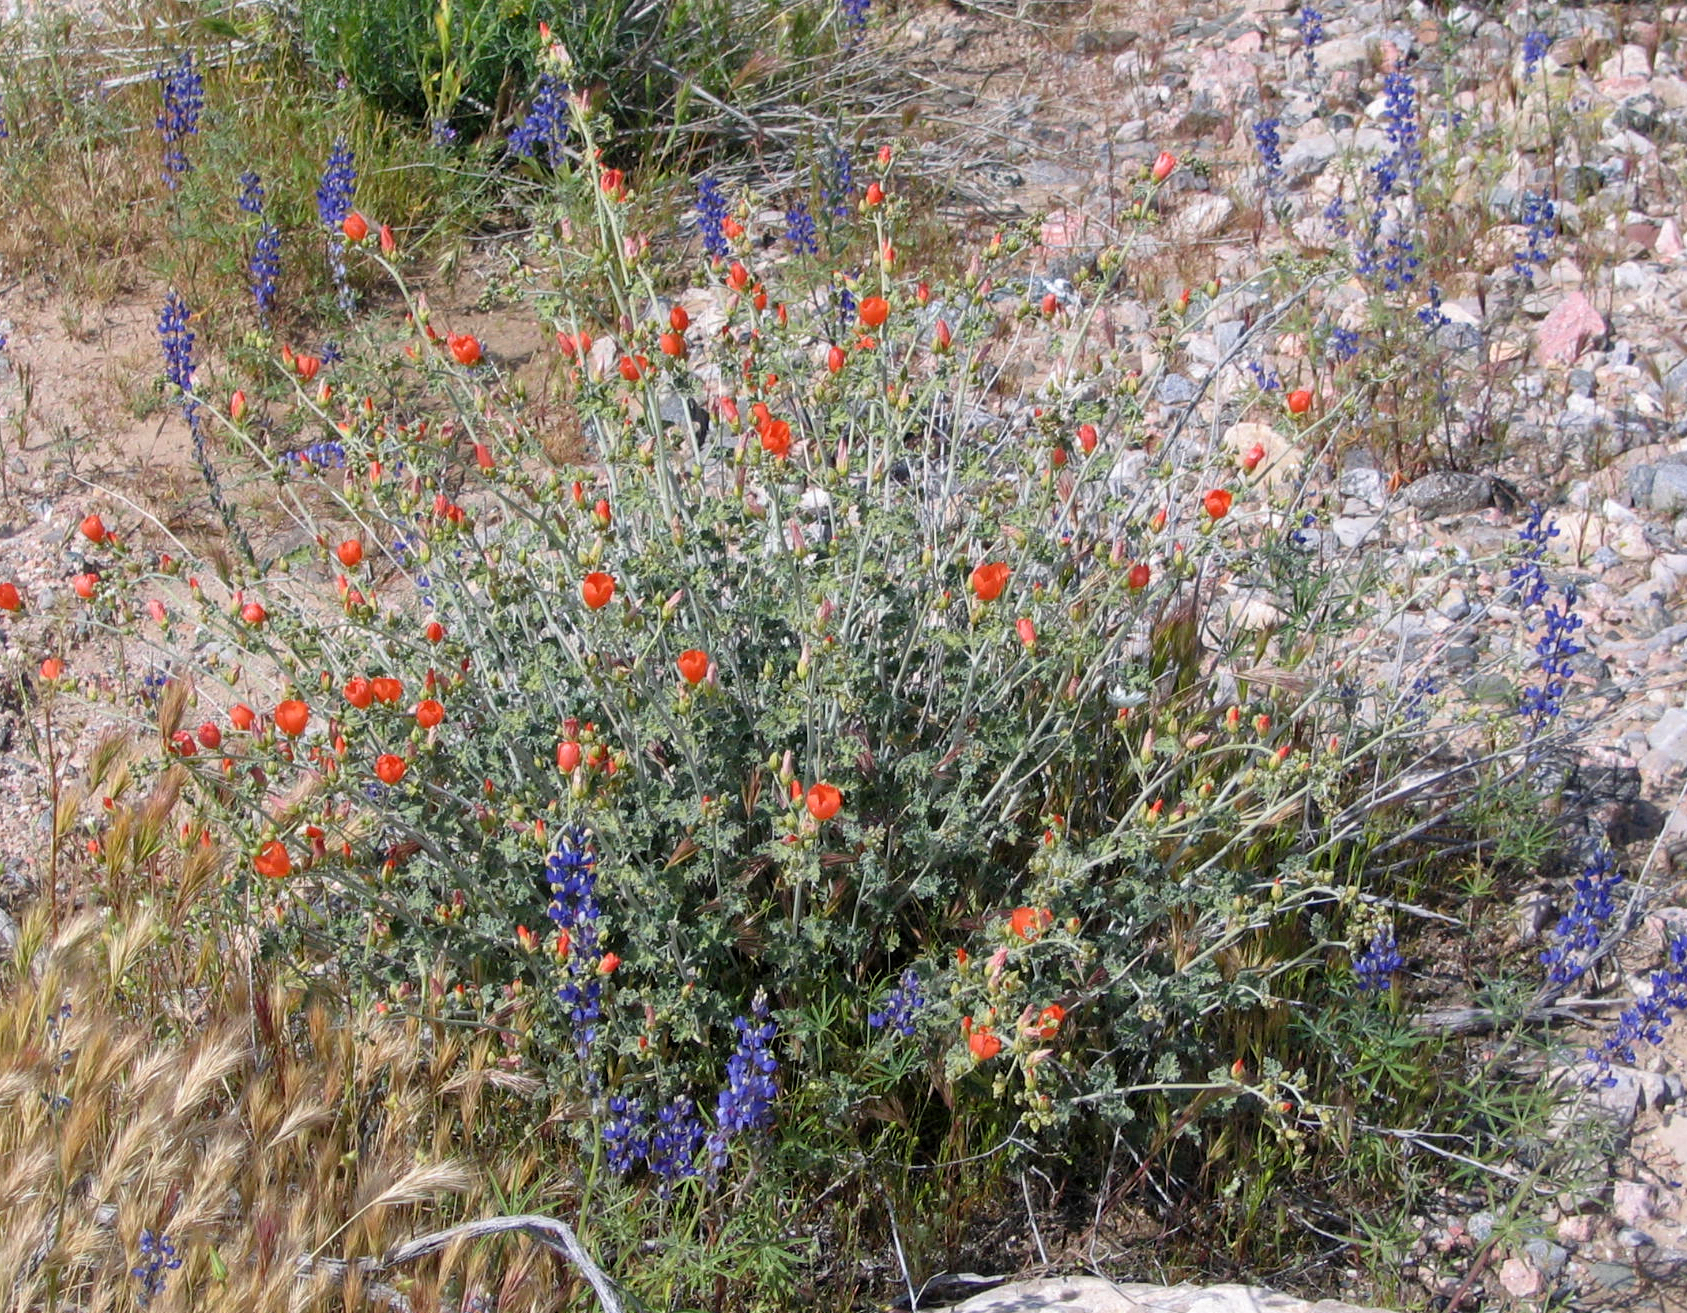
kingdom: Plantae
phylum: Tracheophyta
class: Magnoliopsida
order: Malvales
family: Malvaceae
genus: Sphaeralcea
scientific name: Sphaeralcea ambigua
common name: Apricot globe-mallow
